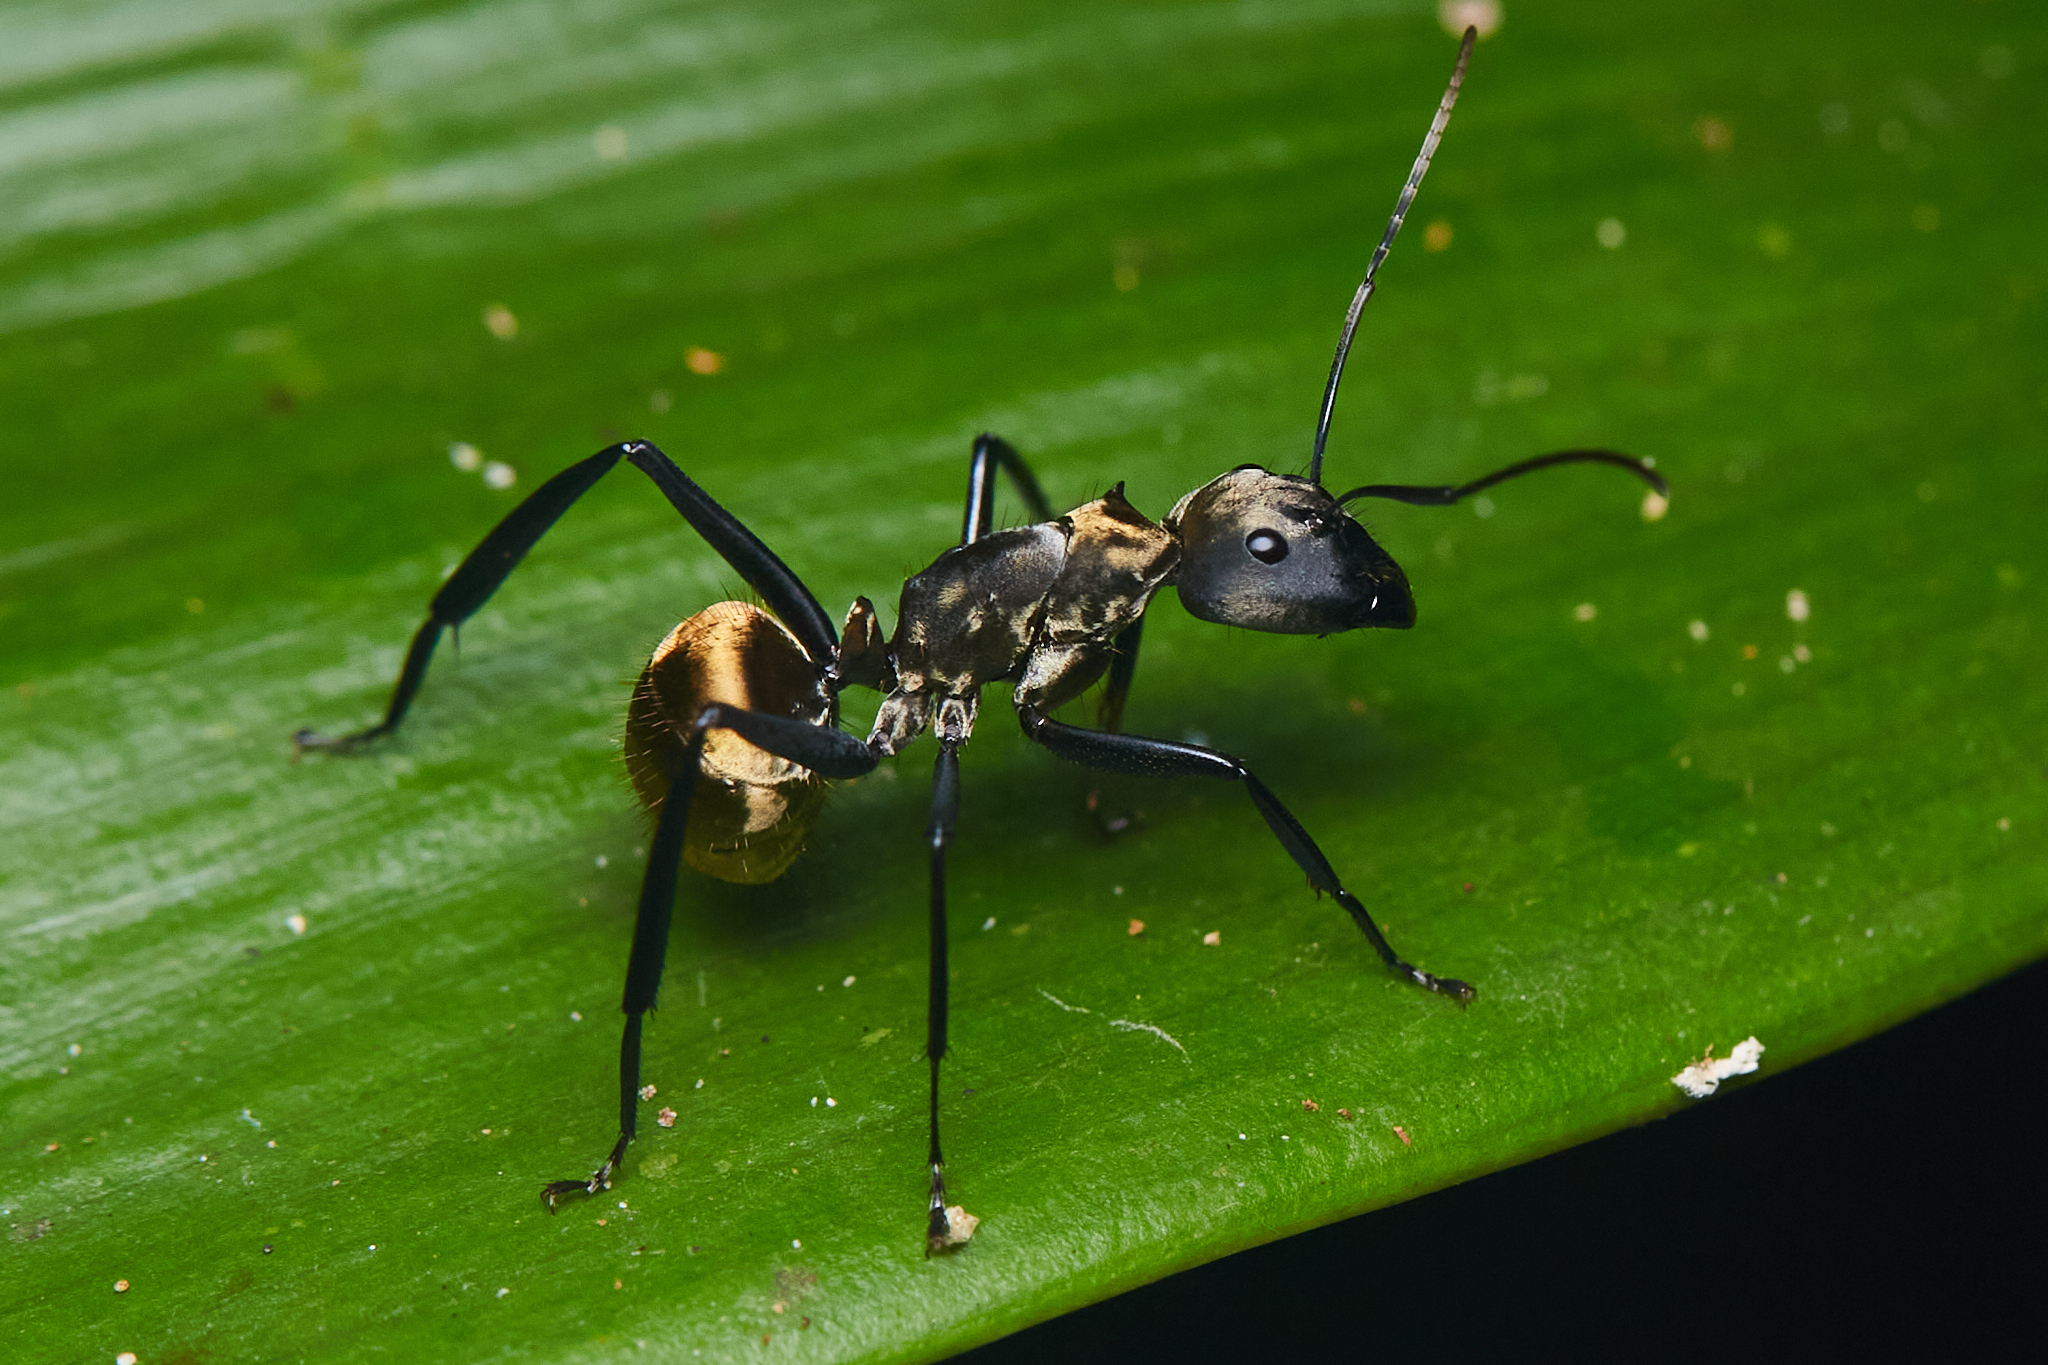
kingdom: Animalia
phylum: Arthropoda
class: Insecta
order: Hymenoptera
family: Formicidae
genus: Camponotus
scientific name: Camponotus sericeiventris
